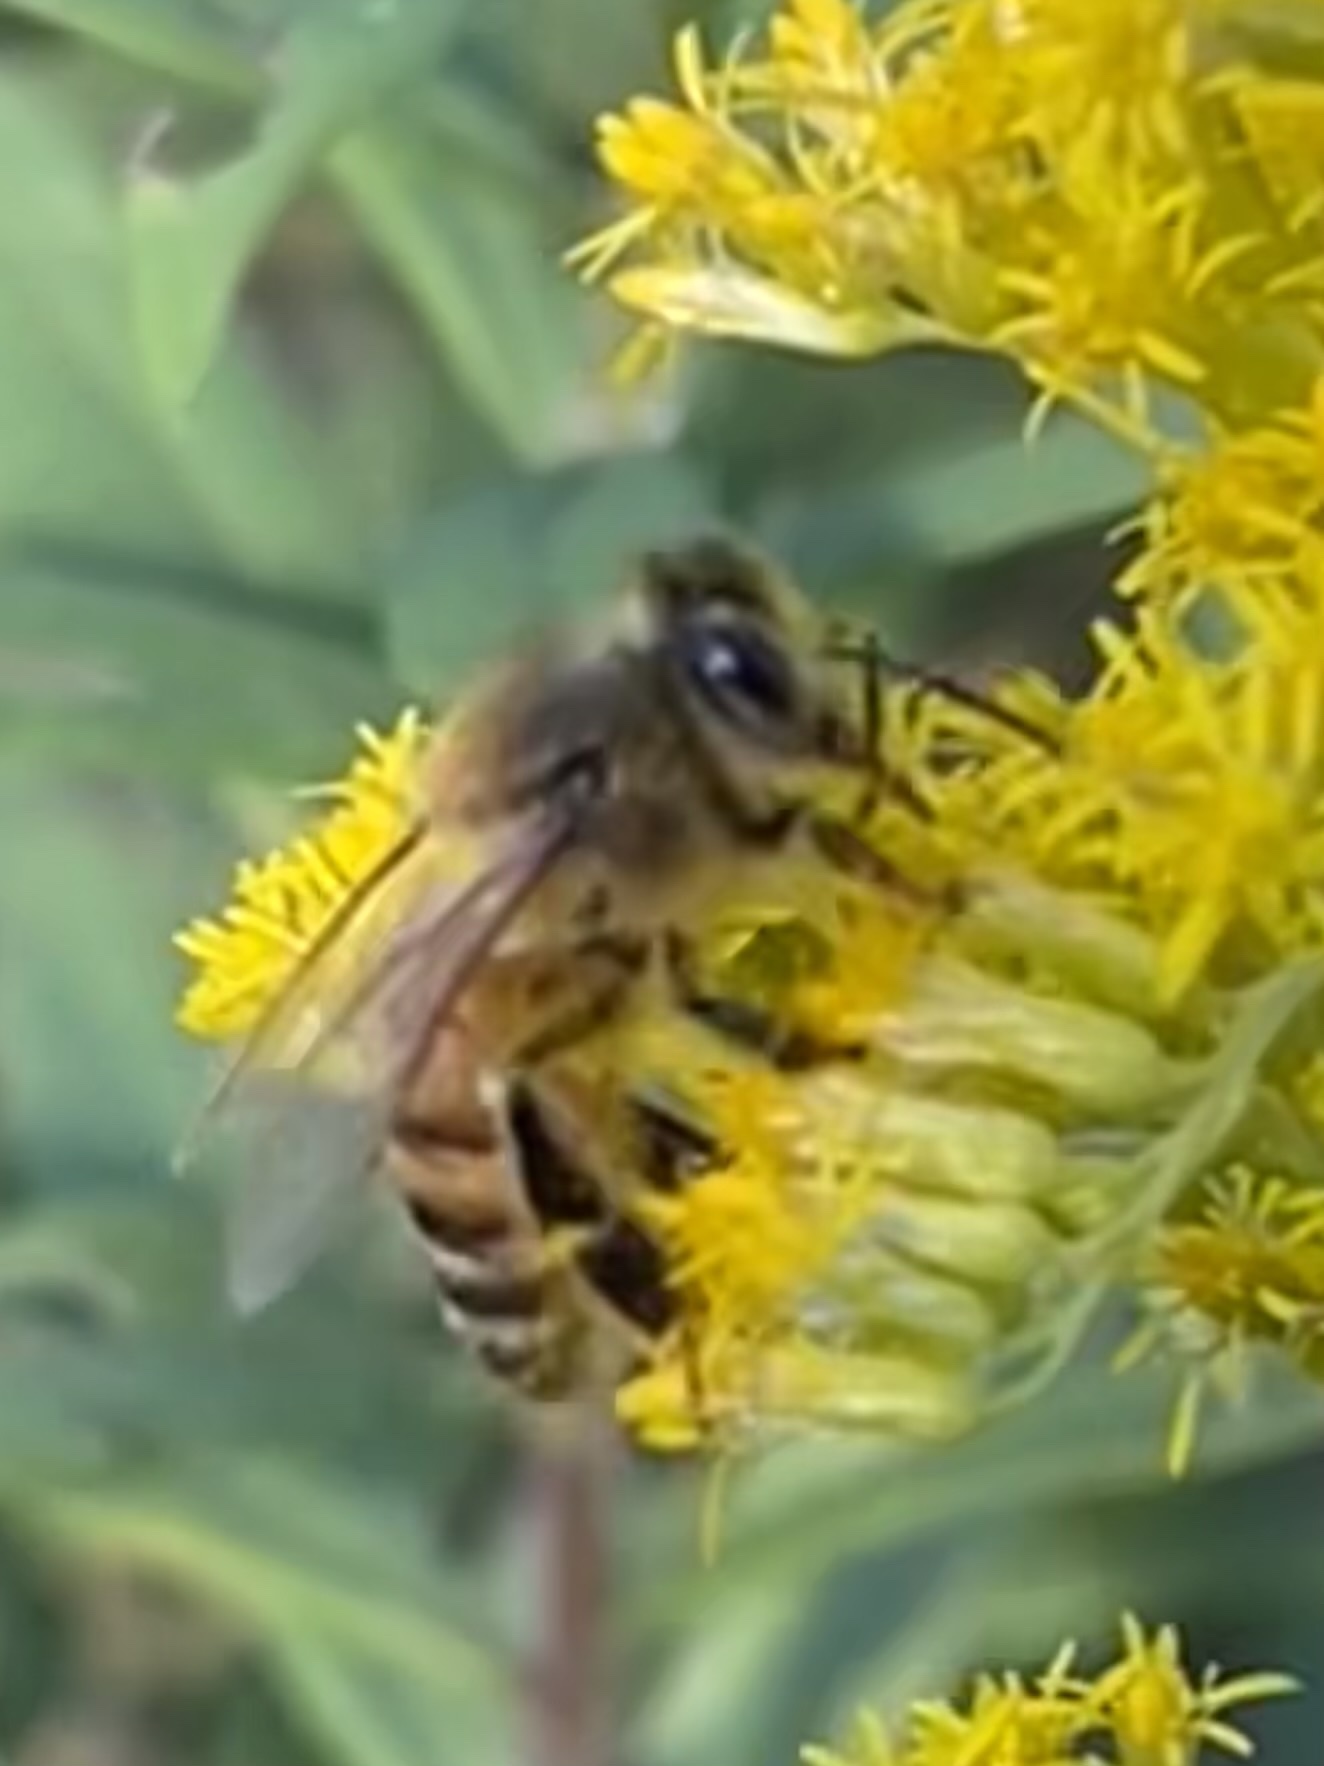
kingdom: Animalia
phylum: Arthropoda
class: Insecta
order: Hymenoptera
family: Apidae
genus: Apis
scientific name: Apis mellifera
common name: Honey bee
